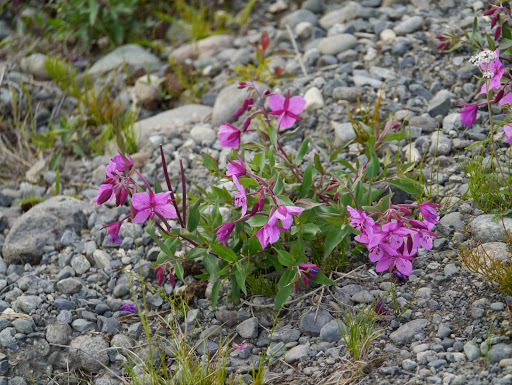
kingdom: Plantae
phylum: Tracheophyta
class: Magnoliopsida
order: Myrtales
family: Onagraceae
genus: Chamaenerion
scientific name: Chamaenerion latifolium
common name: Dwarf fireweed
